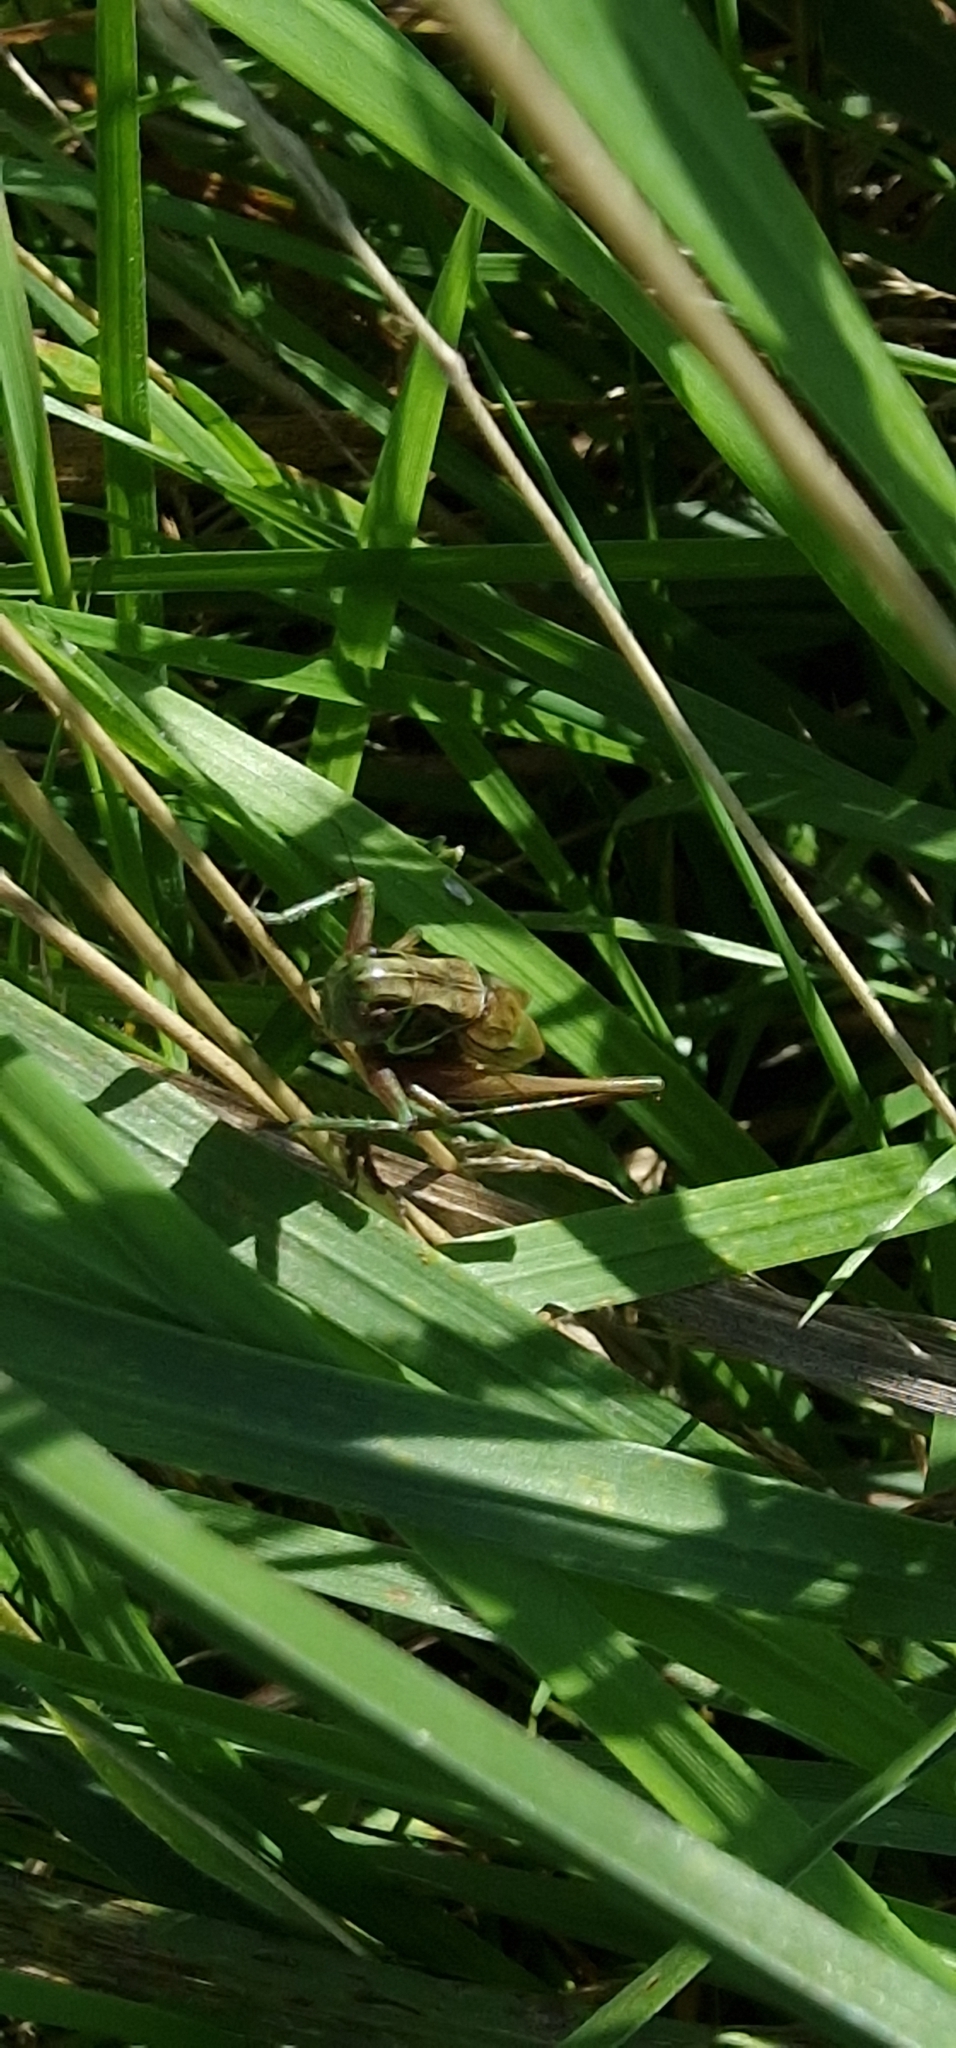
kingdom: Animalia
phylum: Arthropoda
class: Insecta
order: Orthoptera
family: Tettigoniidae
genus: Roeseliana
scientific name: Roeseliana roeselii
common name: Roesel's bush cricket
